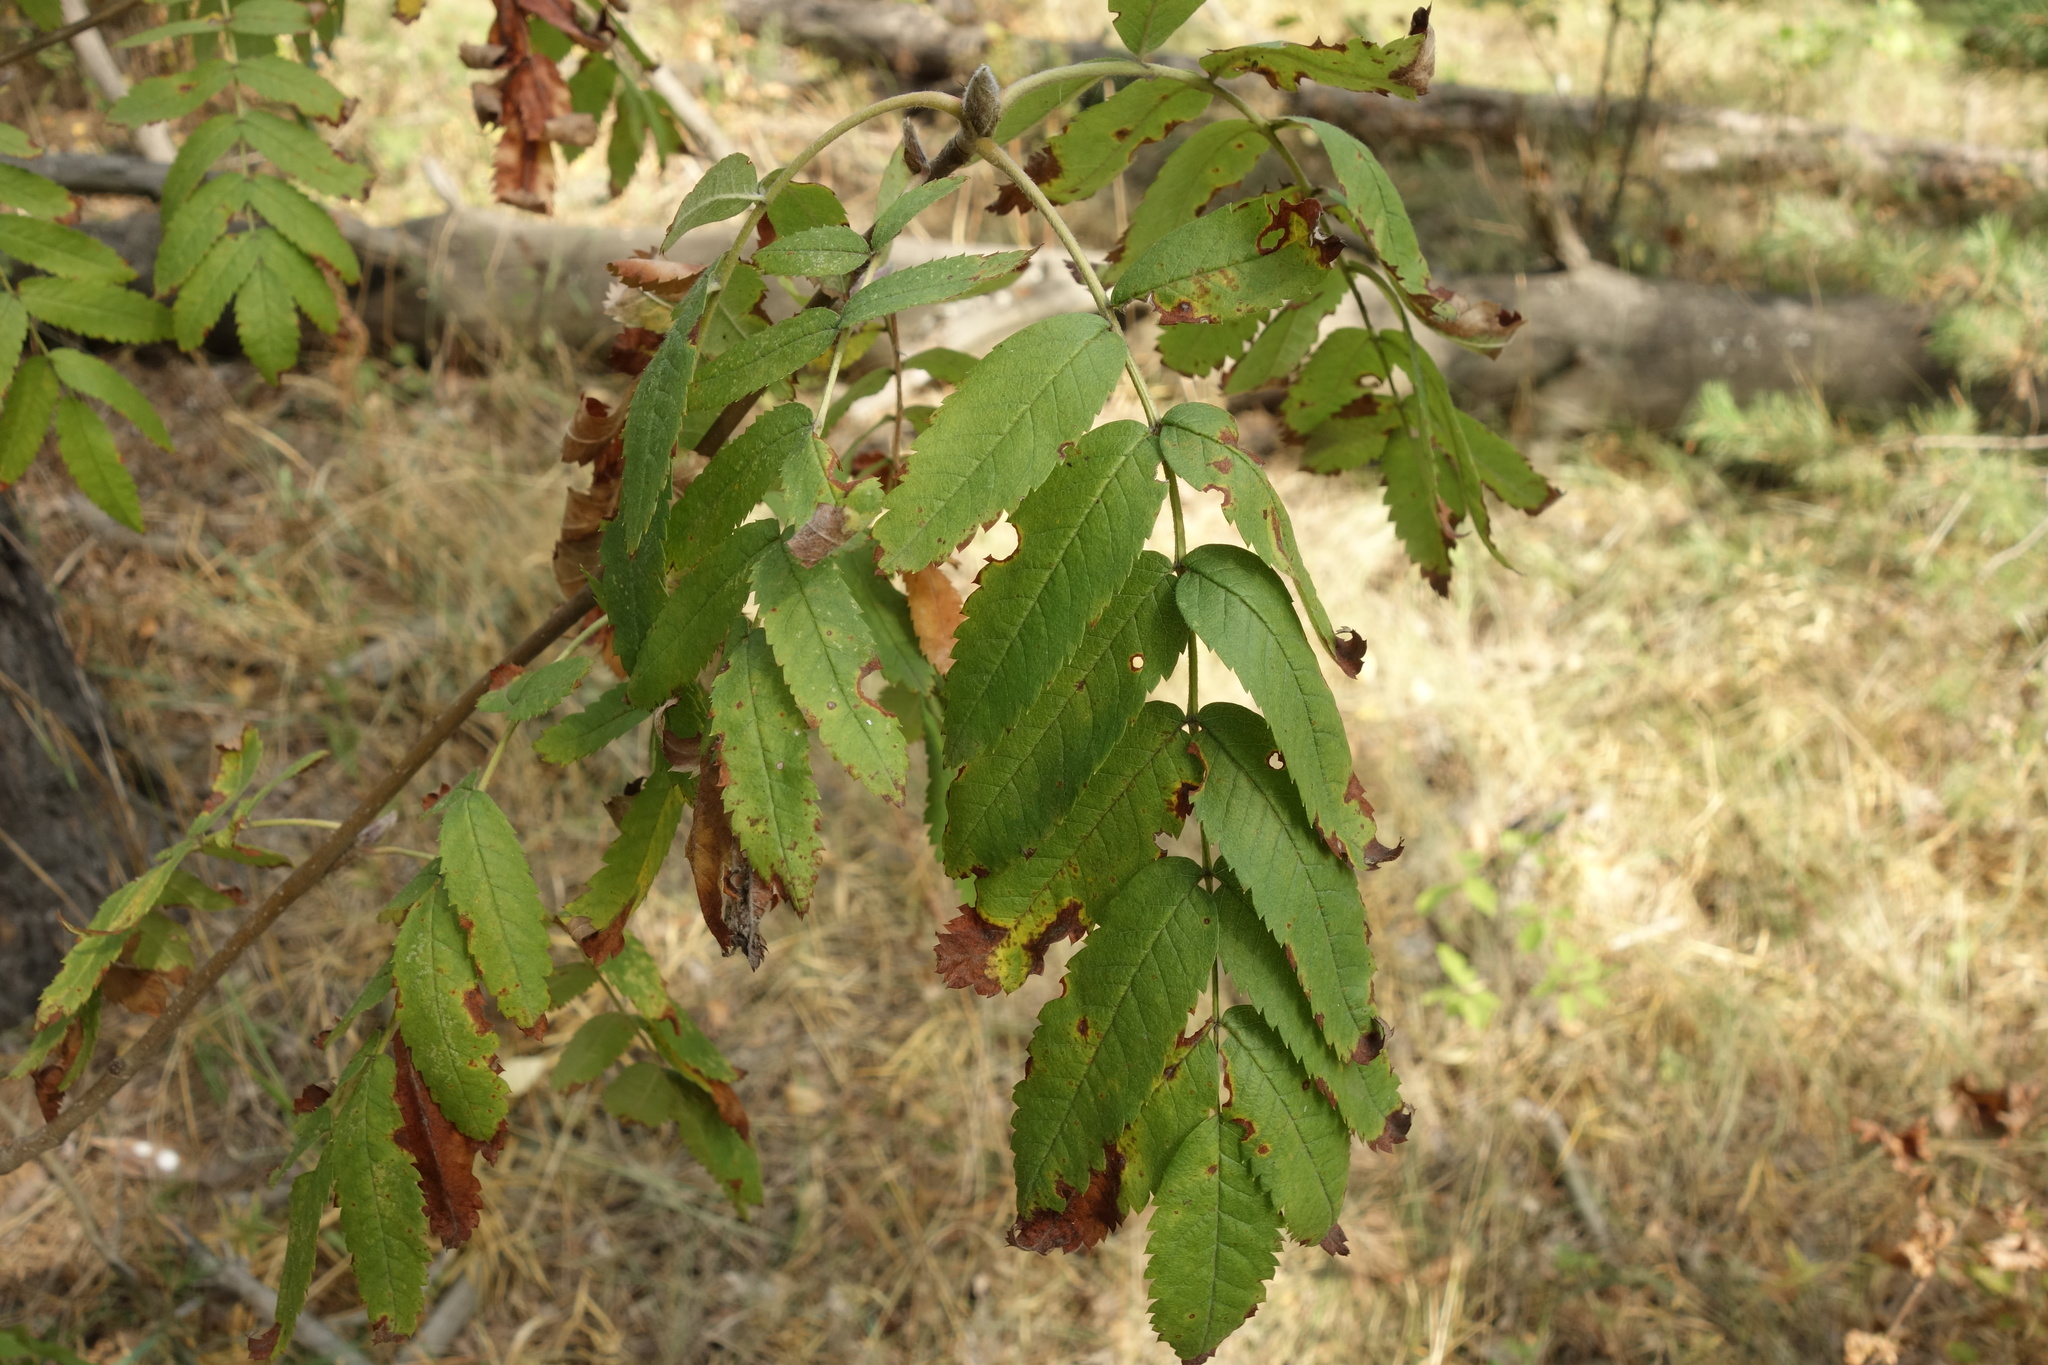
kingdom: Plantae
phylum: Tracheophyta
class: Magnoliopsida
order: Rosales
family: Rosaceae
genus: Sorbus
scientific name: Sorbus aucuparia
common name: Rowan
